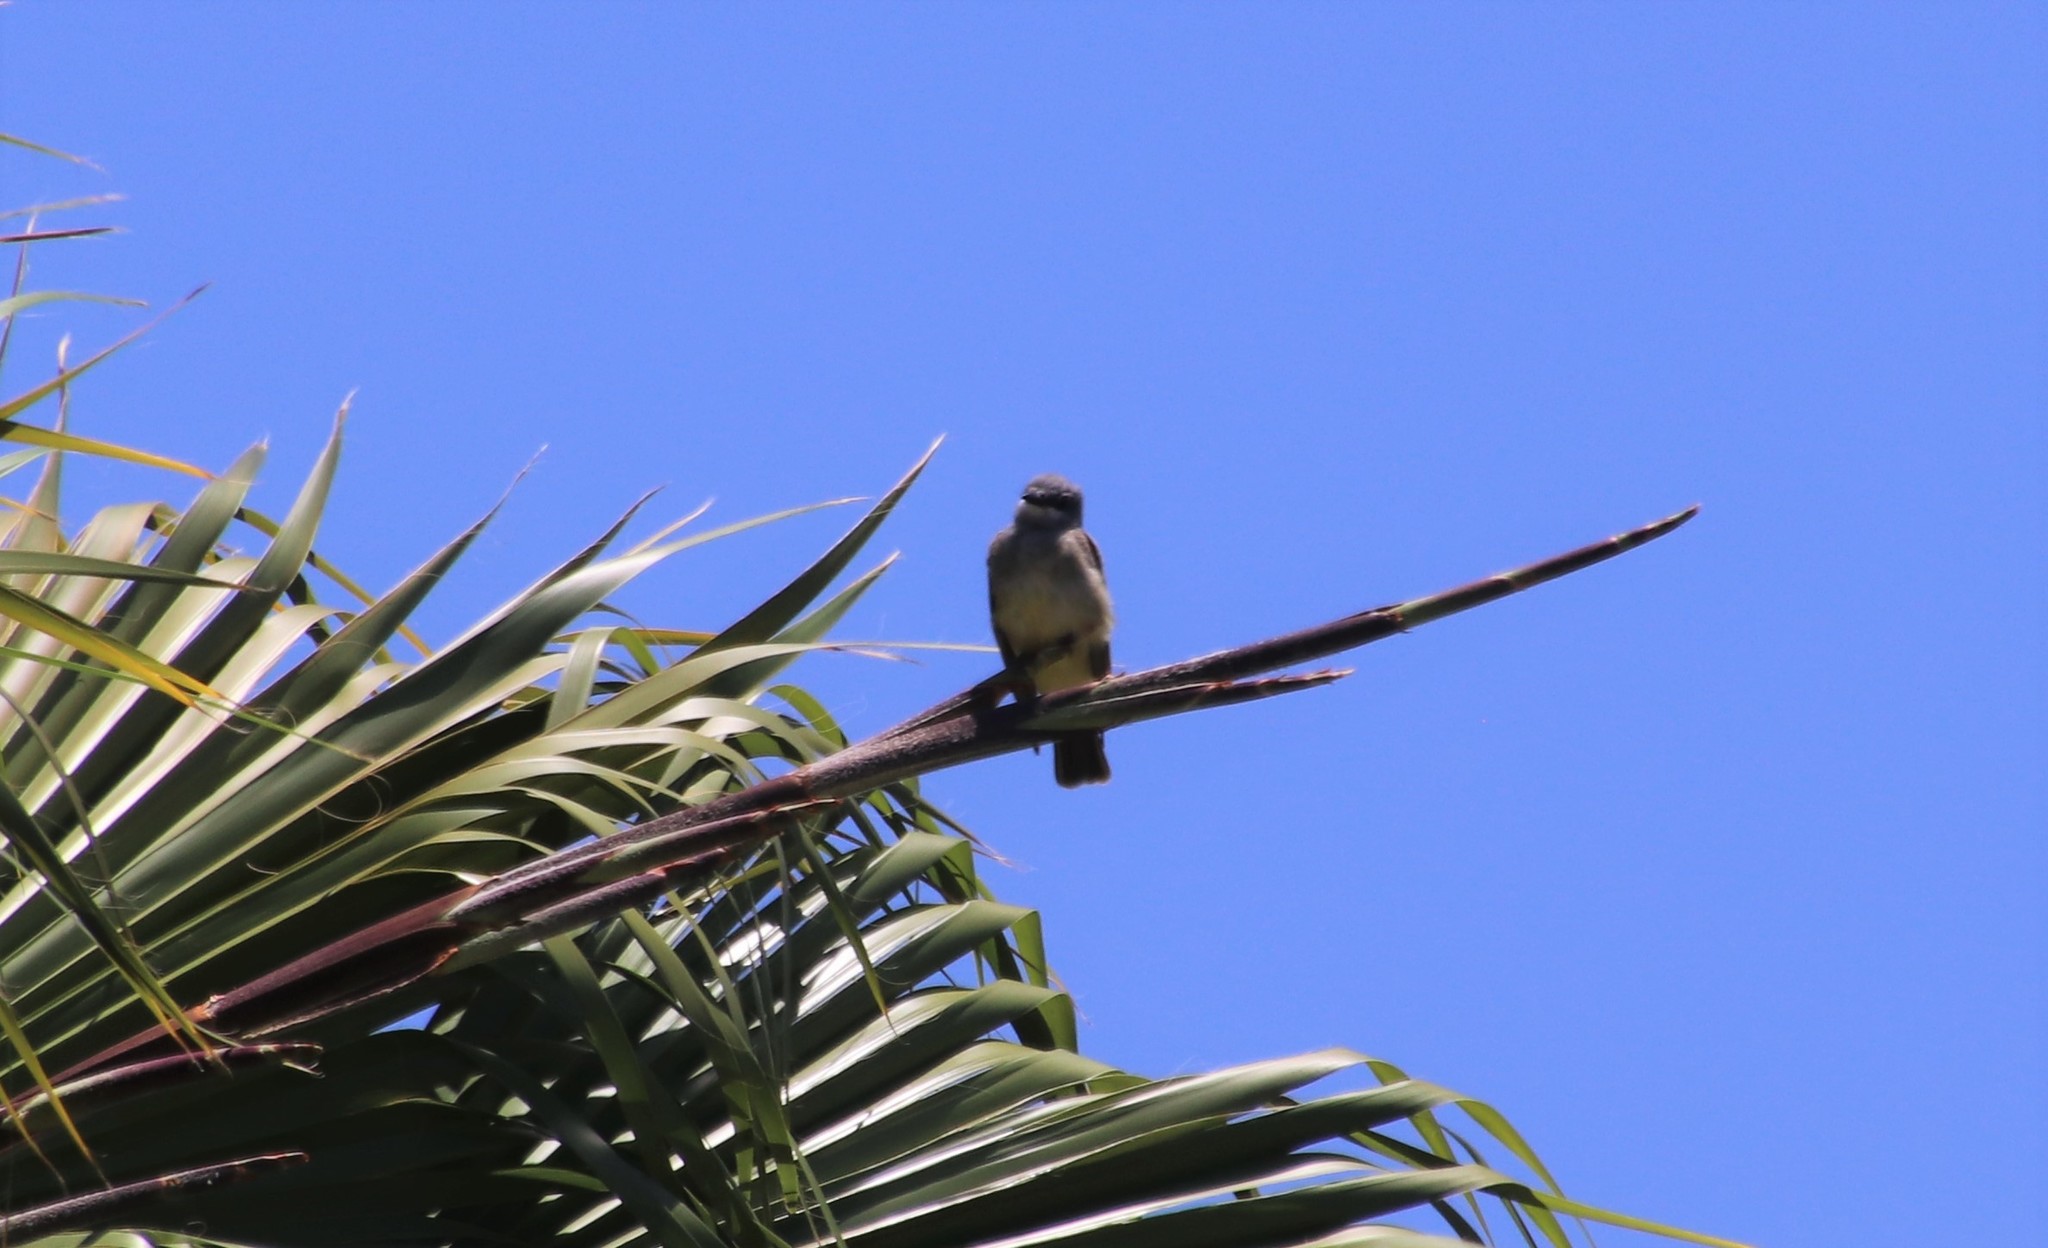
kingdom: Animalia
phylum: Chordata
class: Aves
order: Passeriformes
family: Tyrannidae
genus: Tyrannus
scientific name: Tyrannus vociferans
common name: Cassin's kingbird
